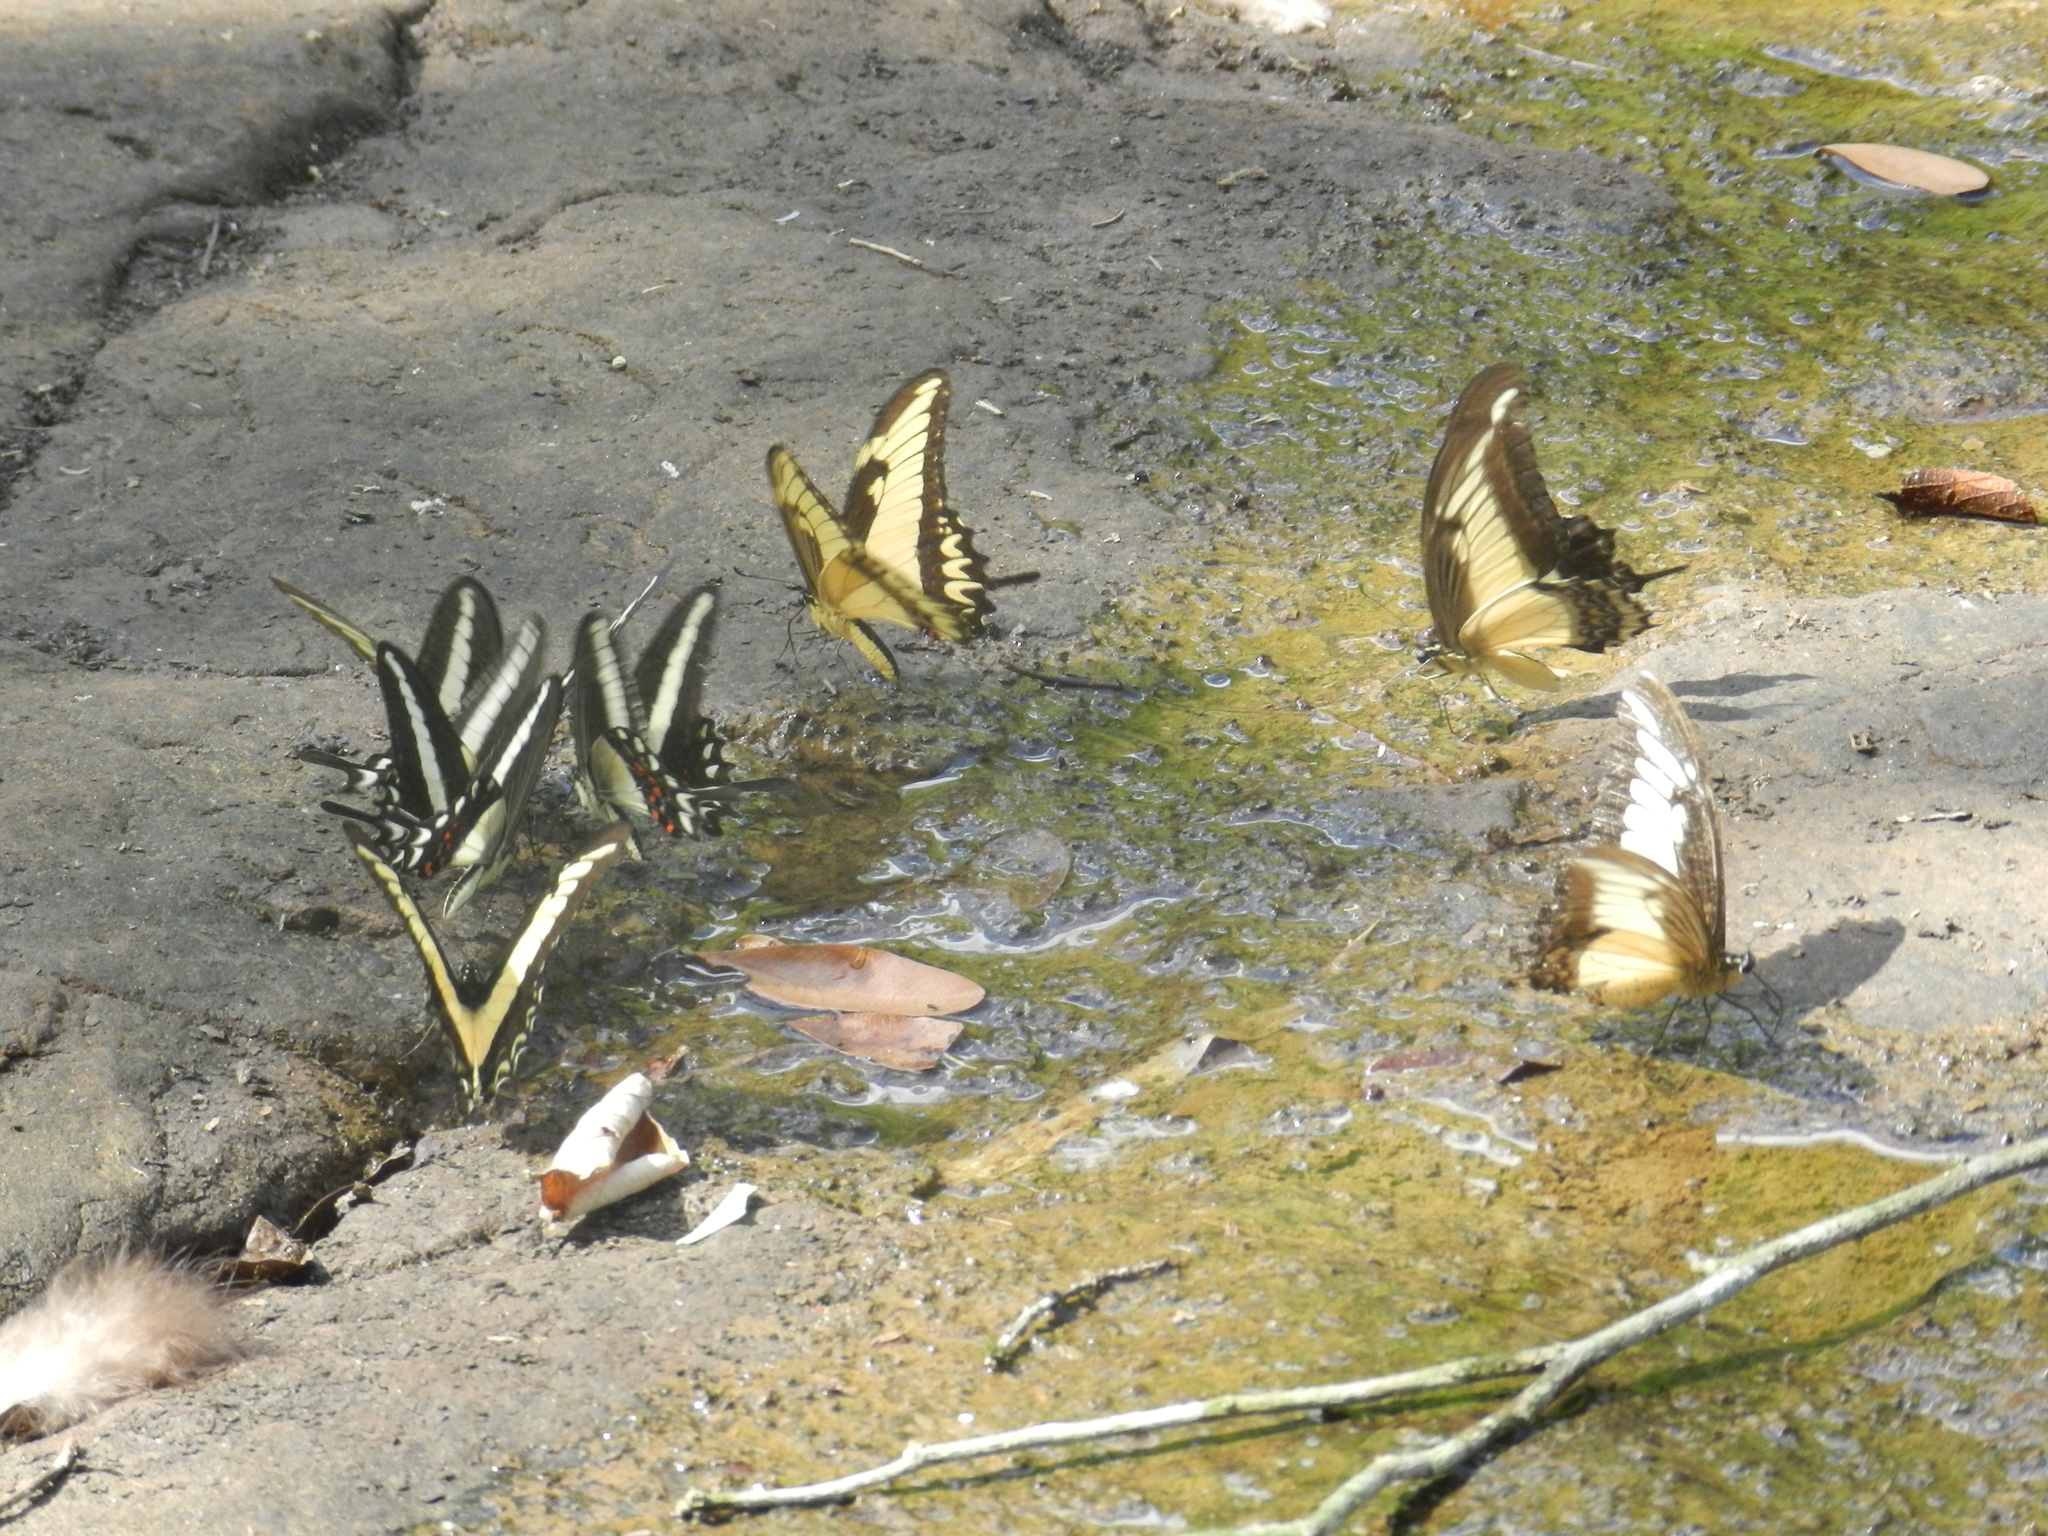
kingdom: Animalia
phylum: Arthropoda
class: Insecta
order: Lepidoptera
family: Papilionidae
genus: Papilio
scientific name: Papilio androgeus
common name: Androgeus swallowtail
